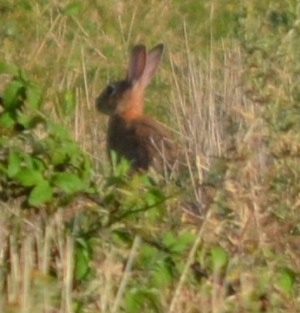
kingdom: Animalia
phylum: Chordata
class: Mammalia
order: Lagomorpha
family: Leporidae
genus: Oryctolagus
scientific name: Oryctolagus cuniculus
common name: European rabbit
